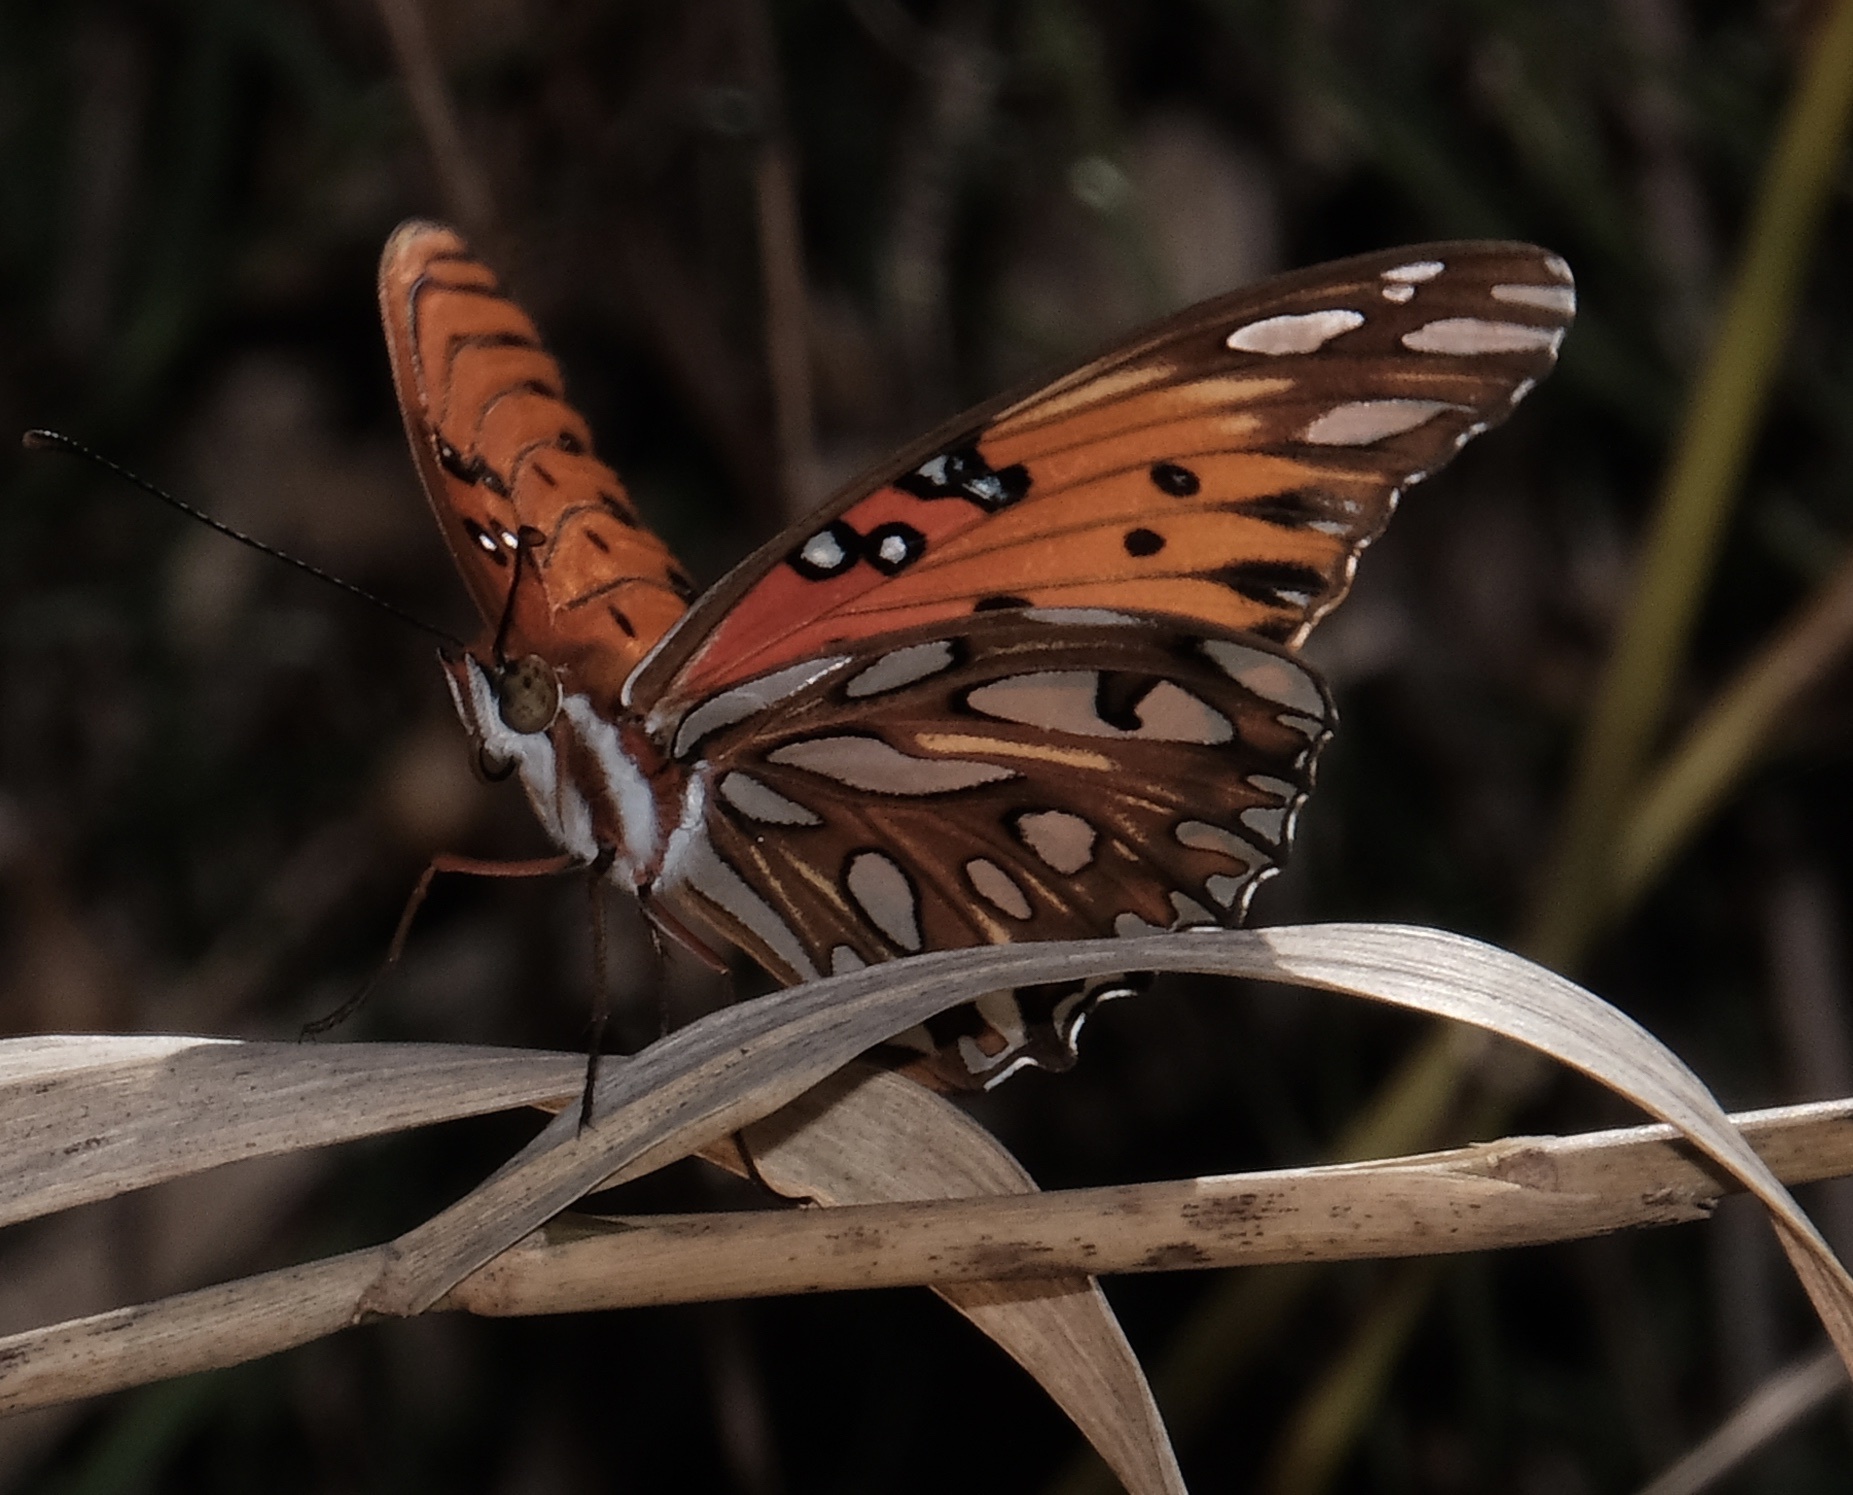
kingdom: Animalia
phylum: Arthropoda
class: Insecta
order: Lepidoptera
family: Nymphalidae
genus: Dione
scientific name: Dione vanillae
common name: Gulf fritillary
